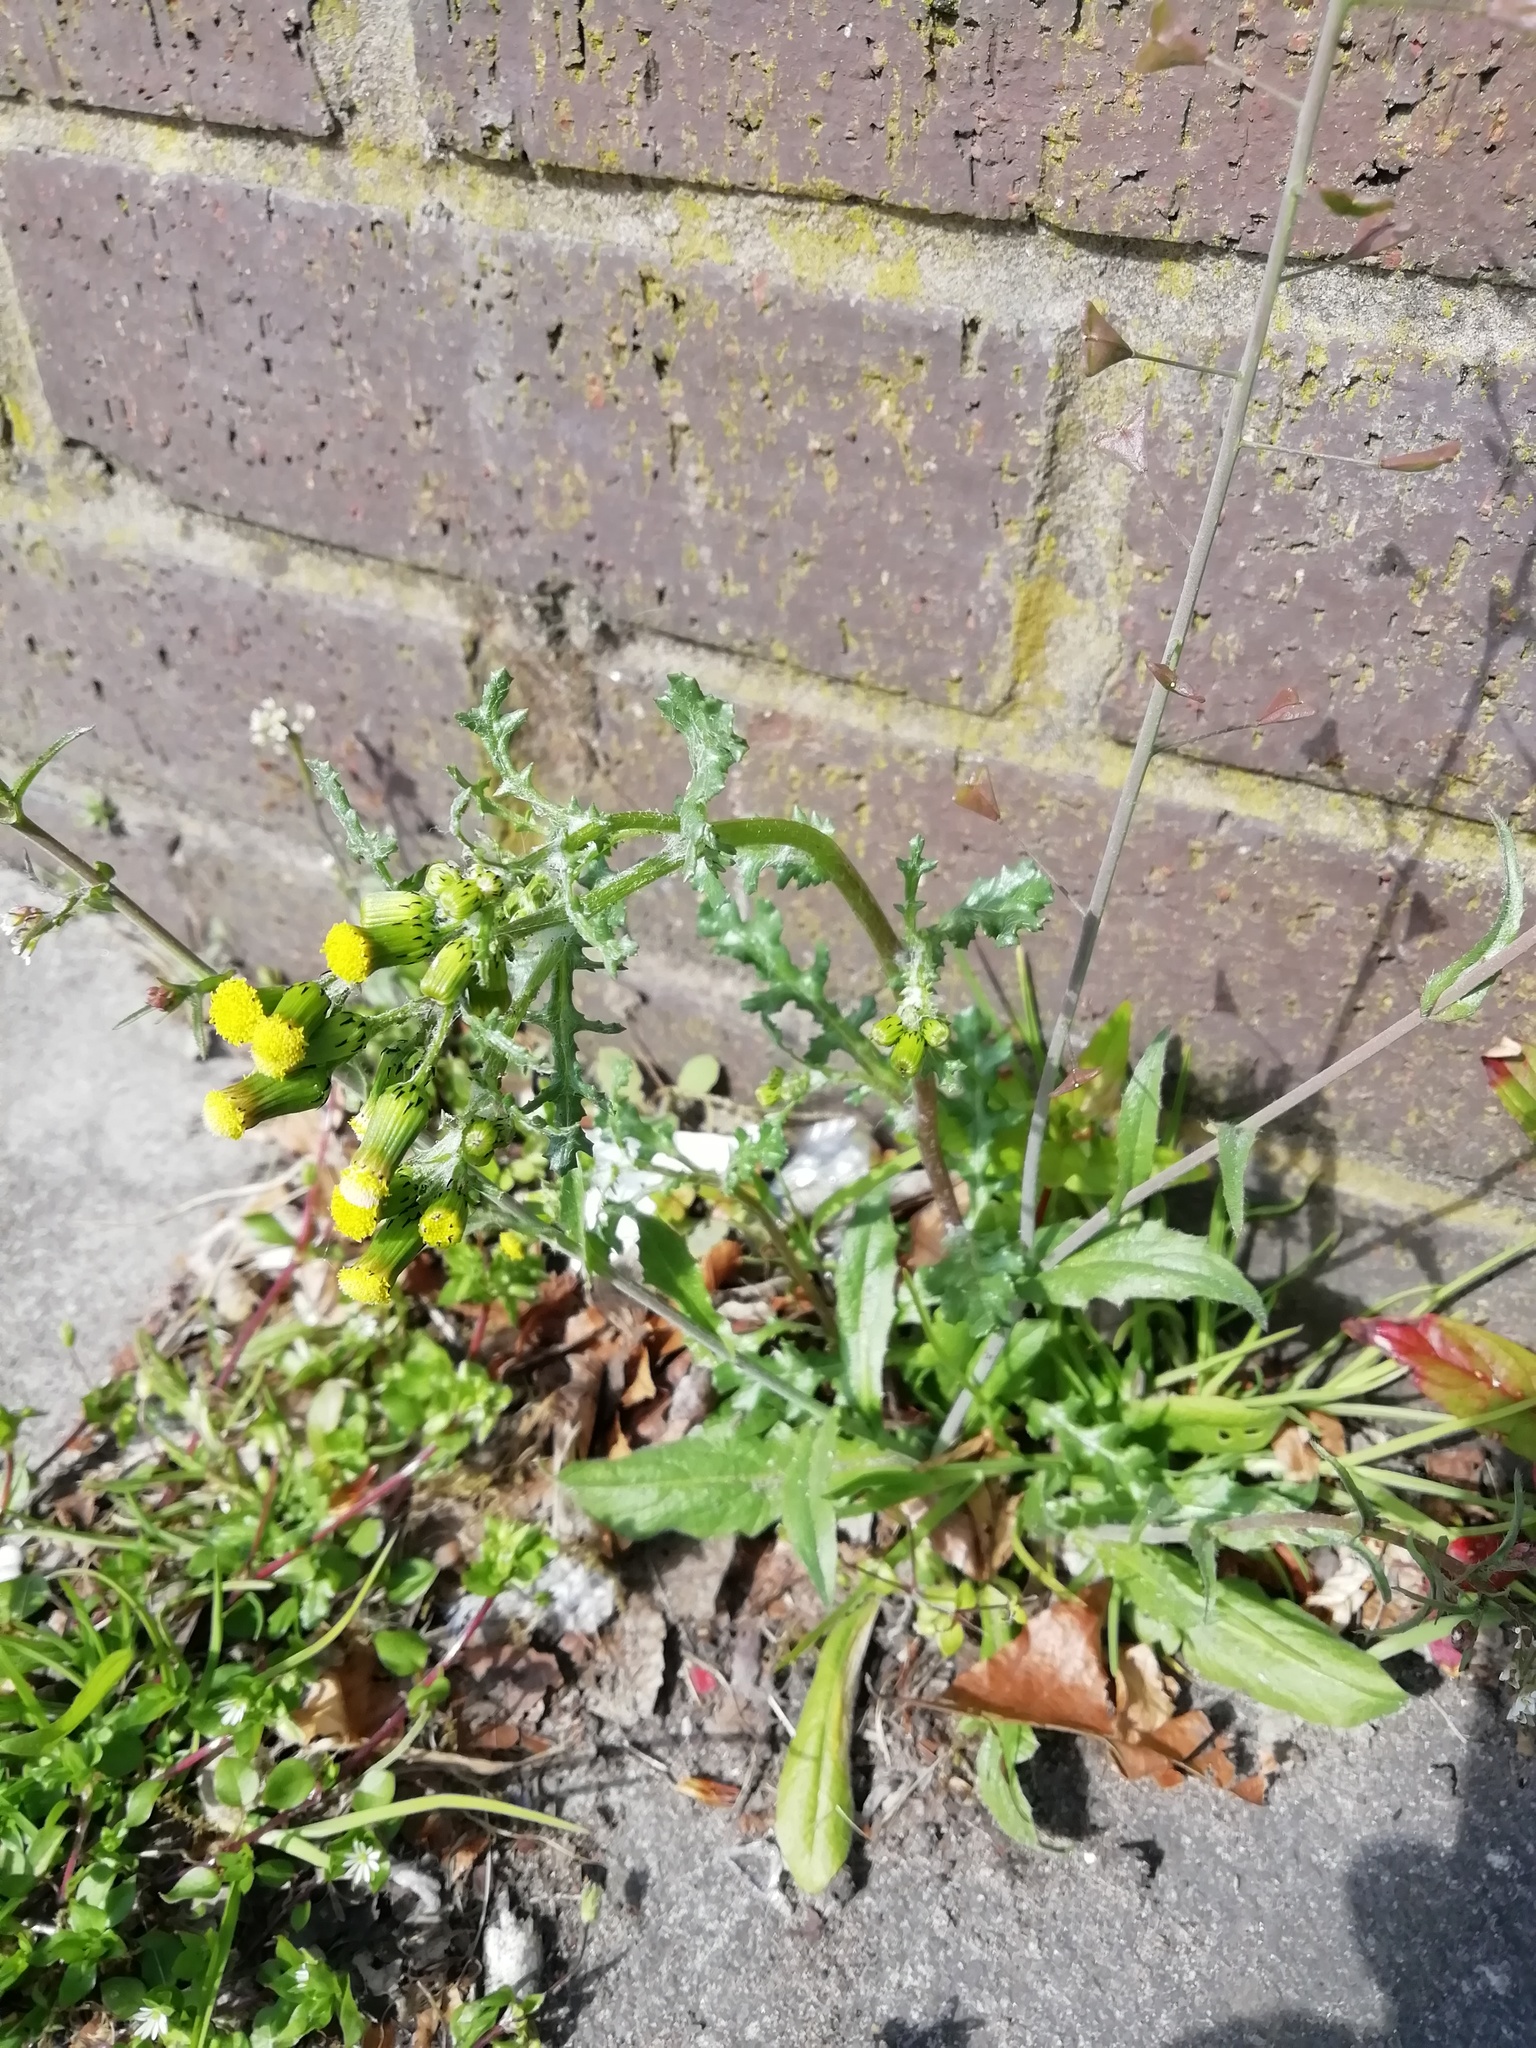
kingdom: Plantae
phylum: Tracheophyta
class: Magnoliopsida
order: Asterales
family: Asteraceae
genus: Senecio
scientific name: Senecio vulgaris
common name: Old-man-in-the-spring
